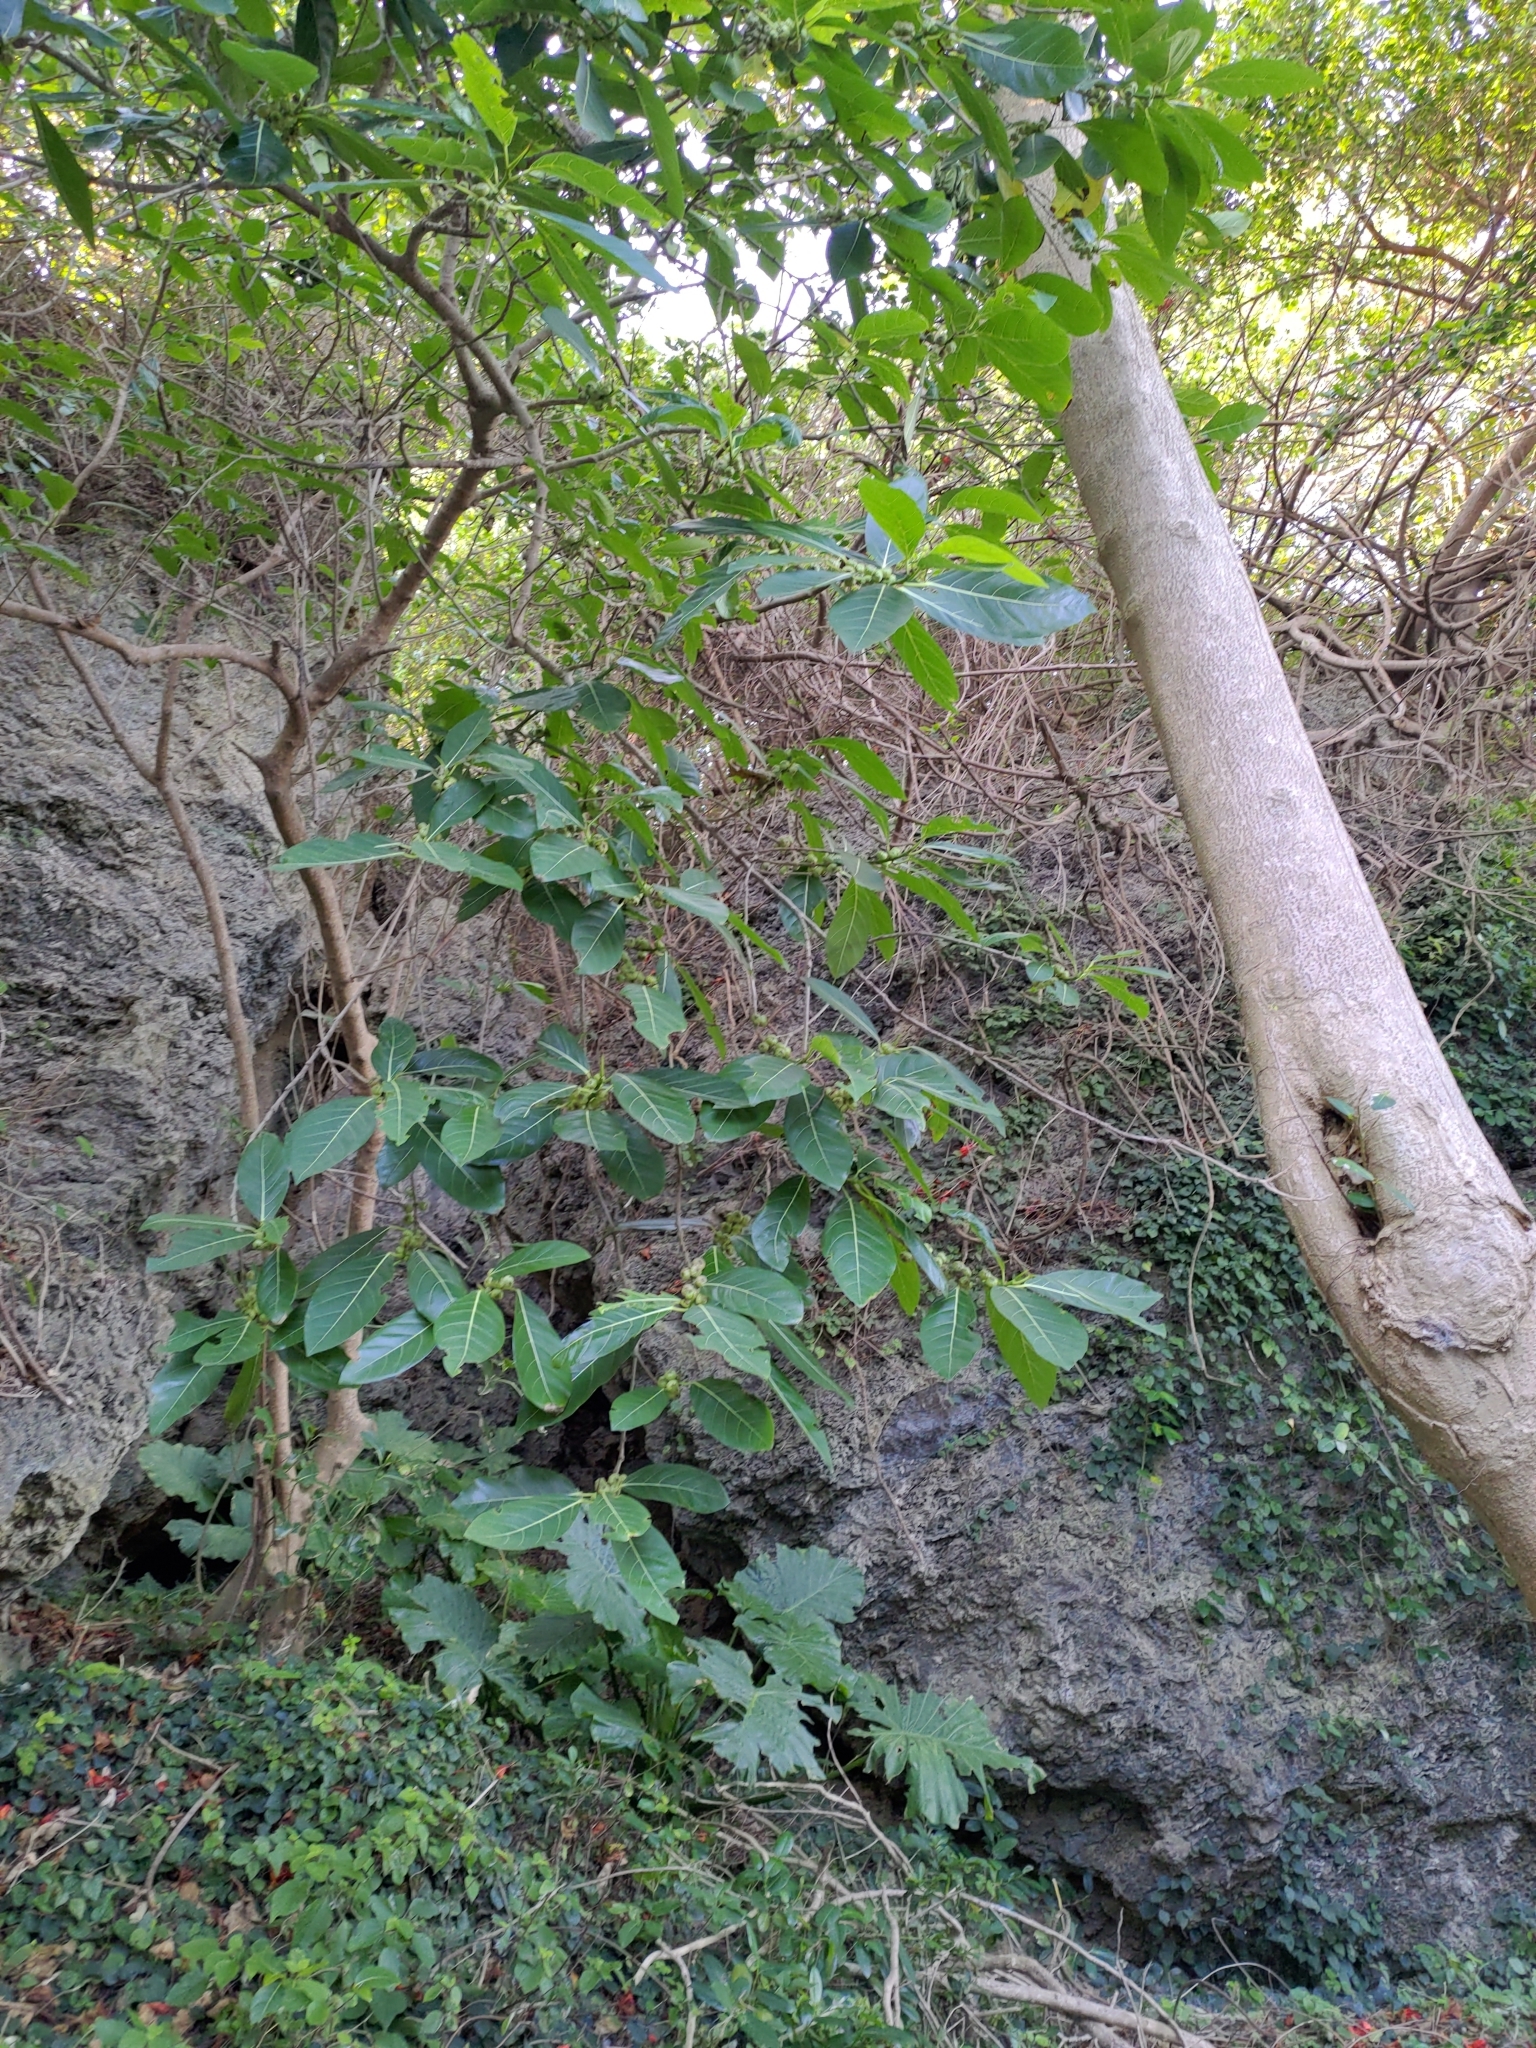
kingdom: Plantae
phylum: Tracheophyta
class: Magnoliopsida
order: Rosales
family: Moraceae
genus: Ficus
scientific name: Ficus septica
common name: Septic fig
